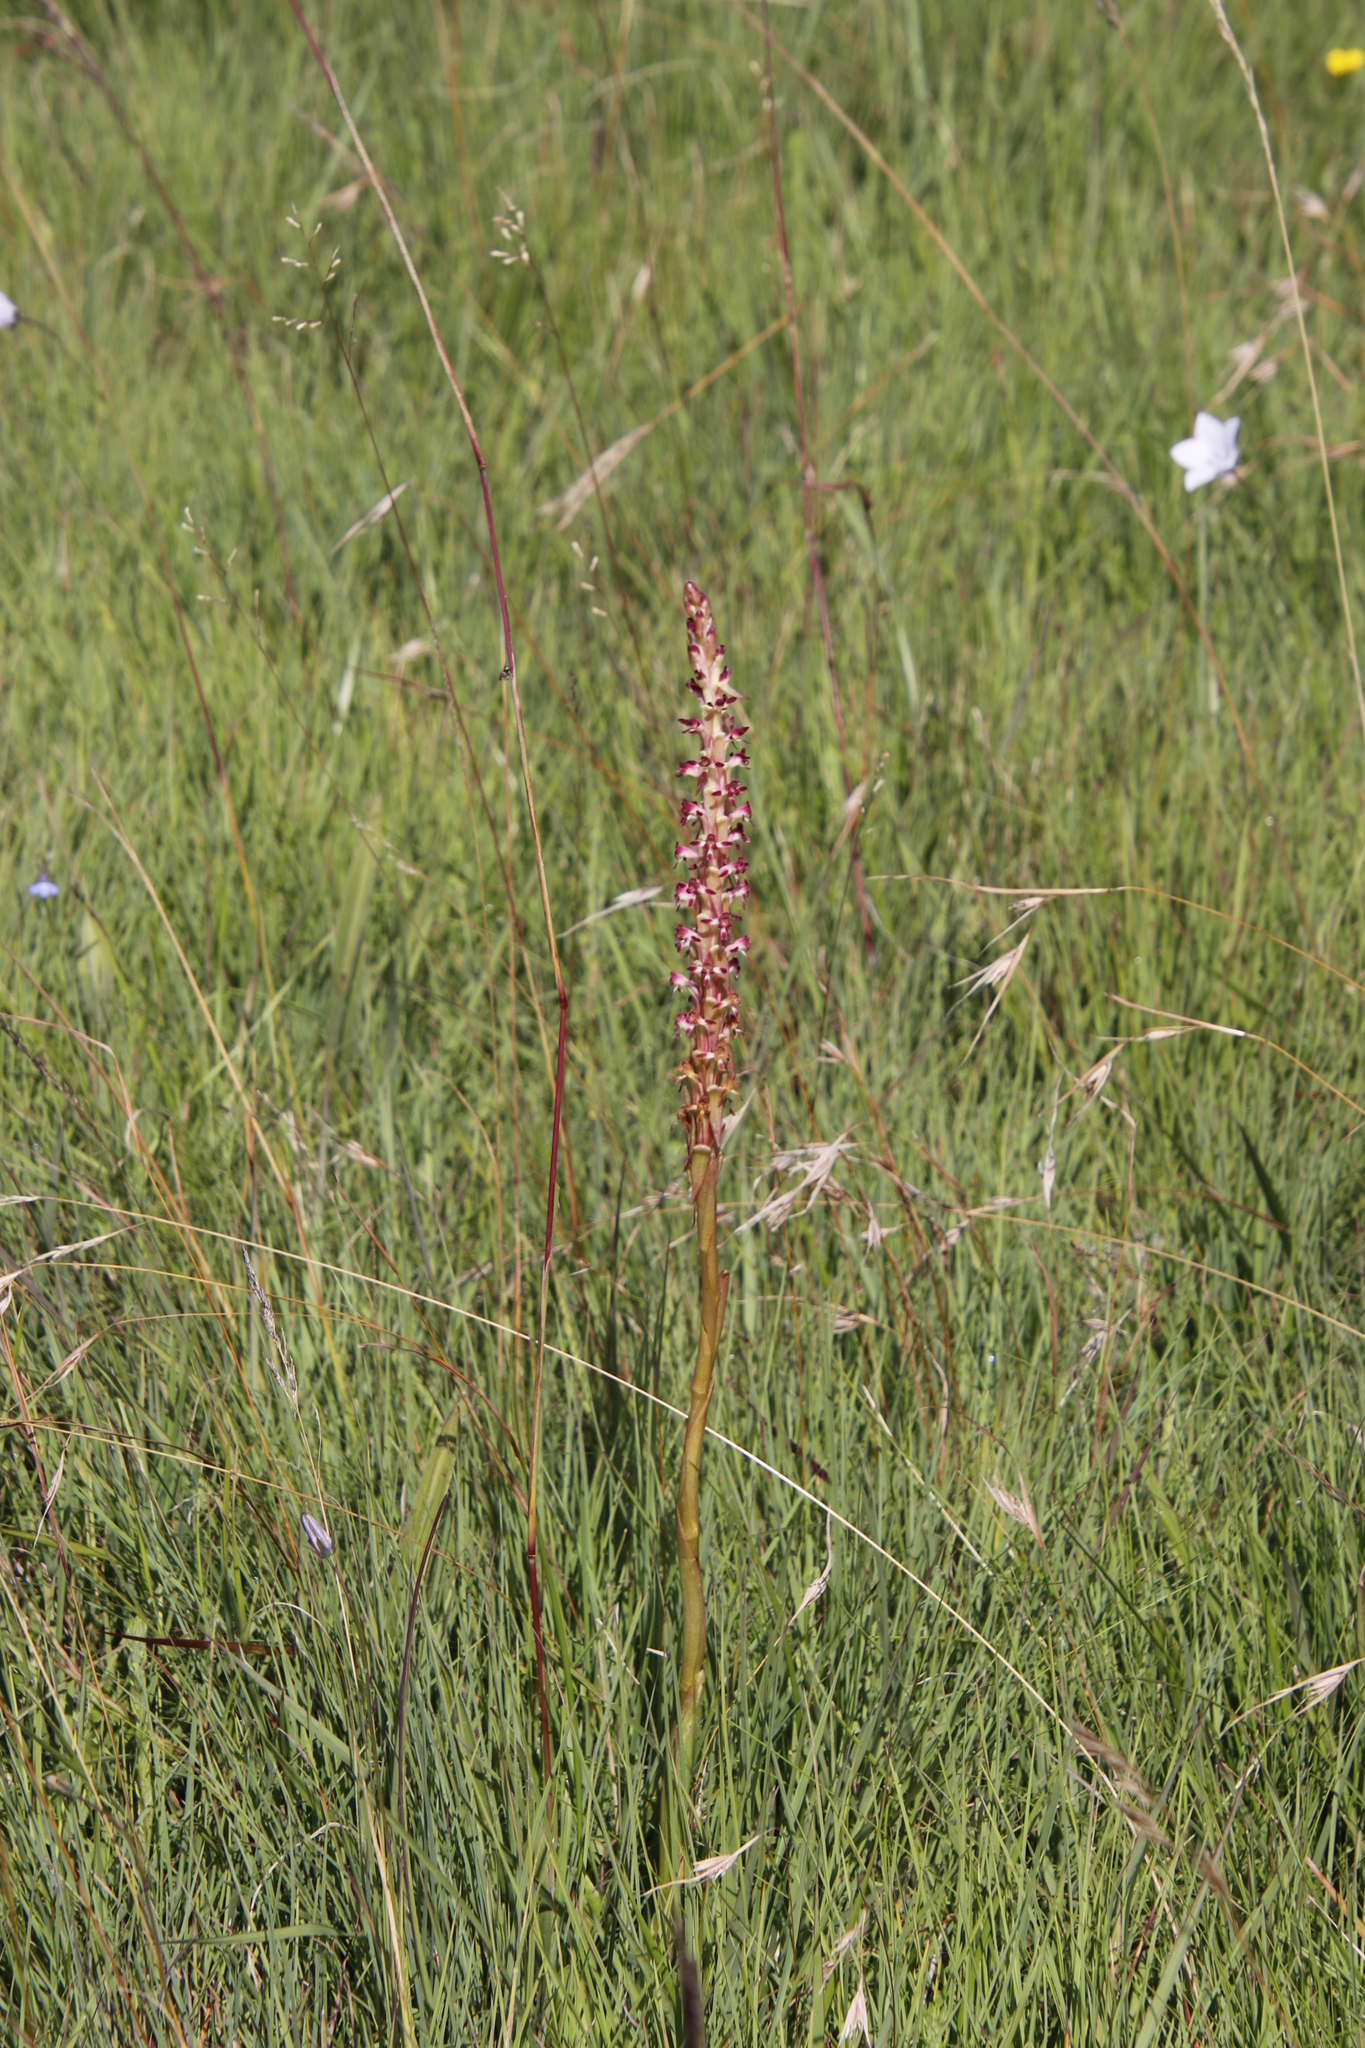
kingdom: Plantae
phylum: Tracheophyta
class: Liliopsida
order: Asparagales
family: Orchidaceae
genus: Satyrium
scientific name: Satyrium longicauda
